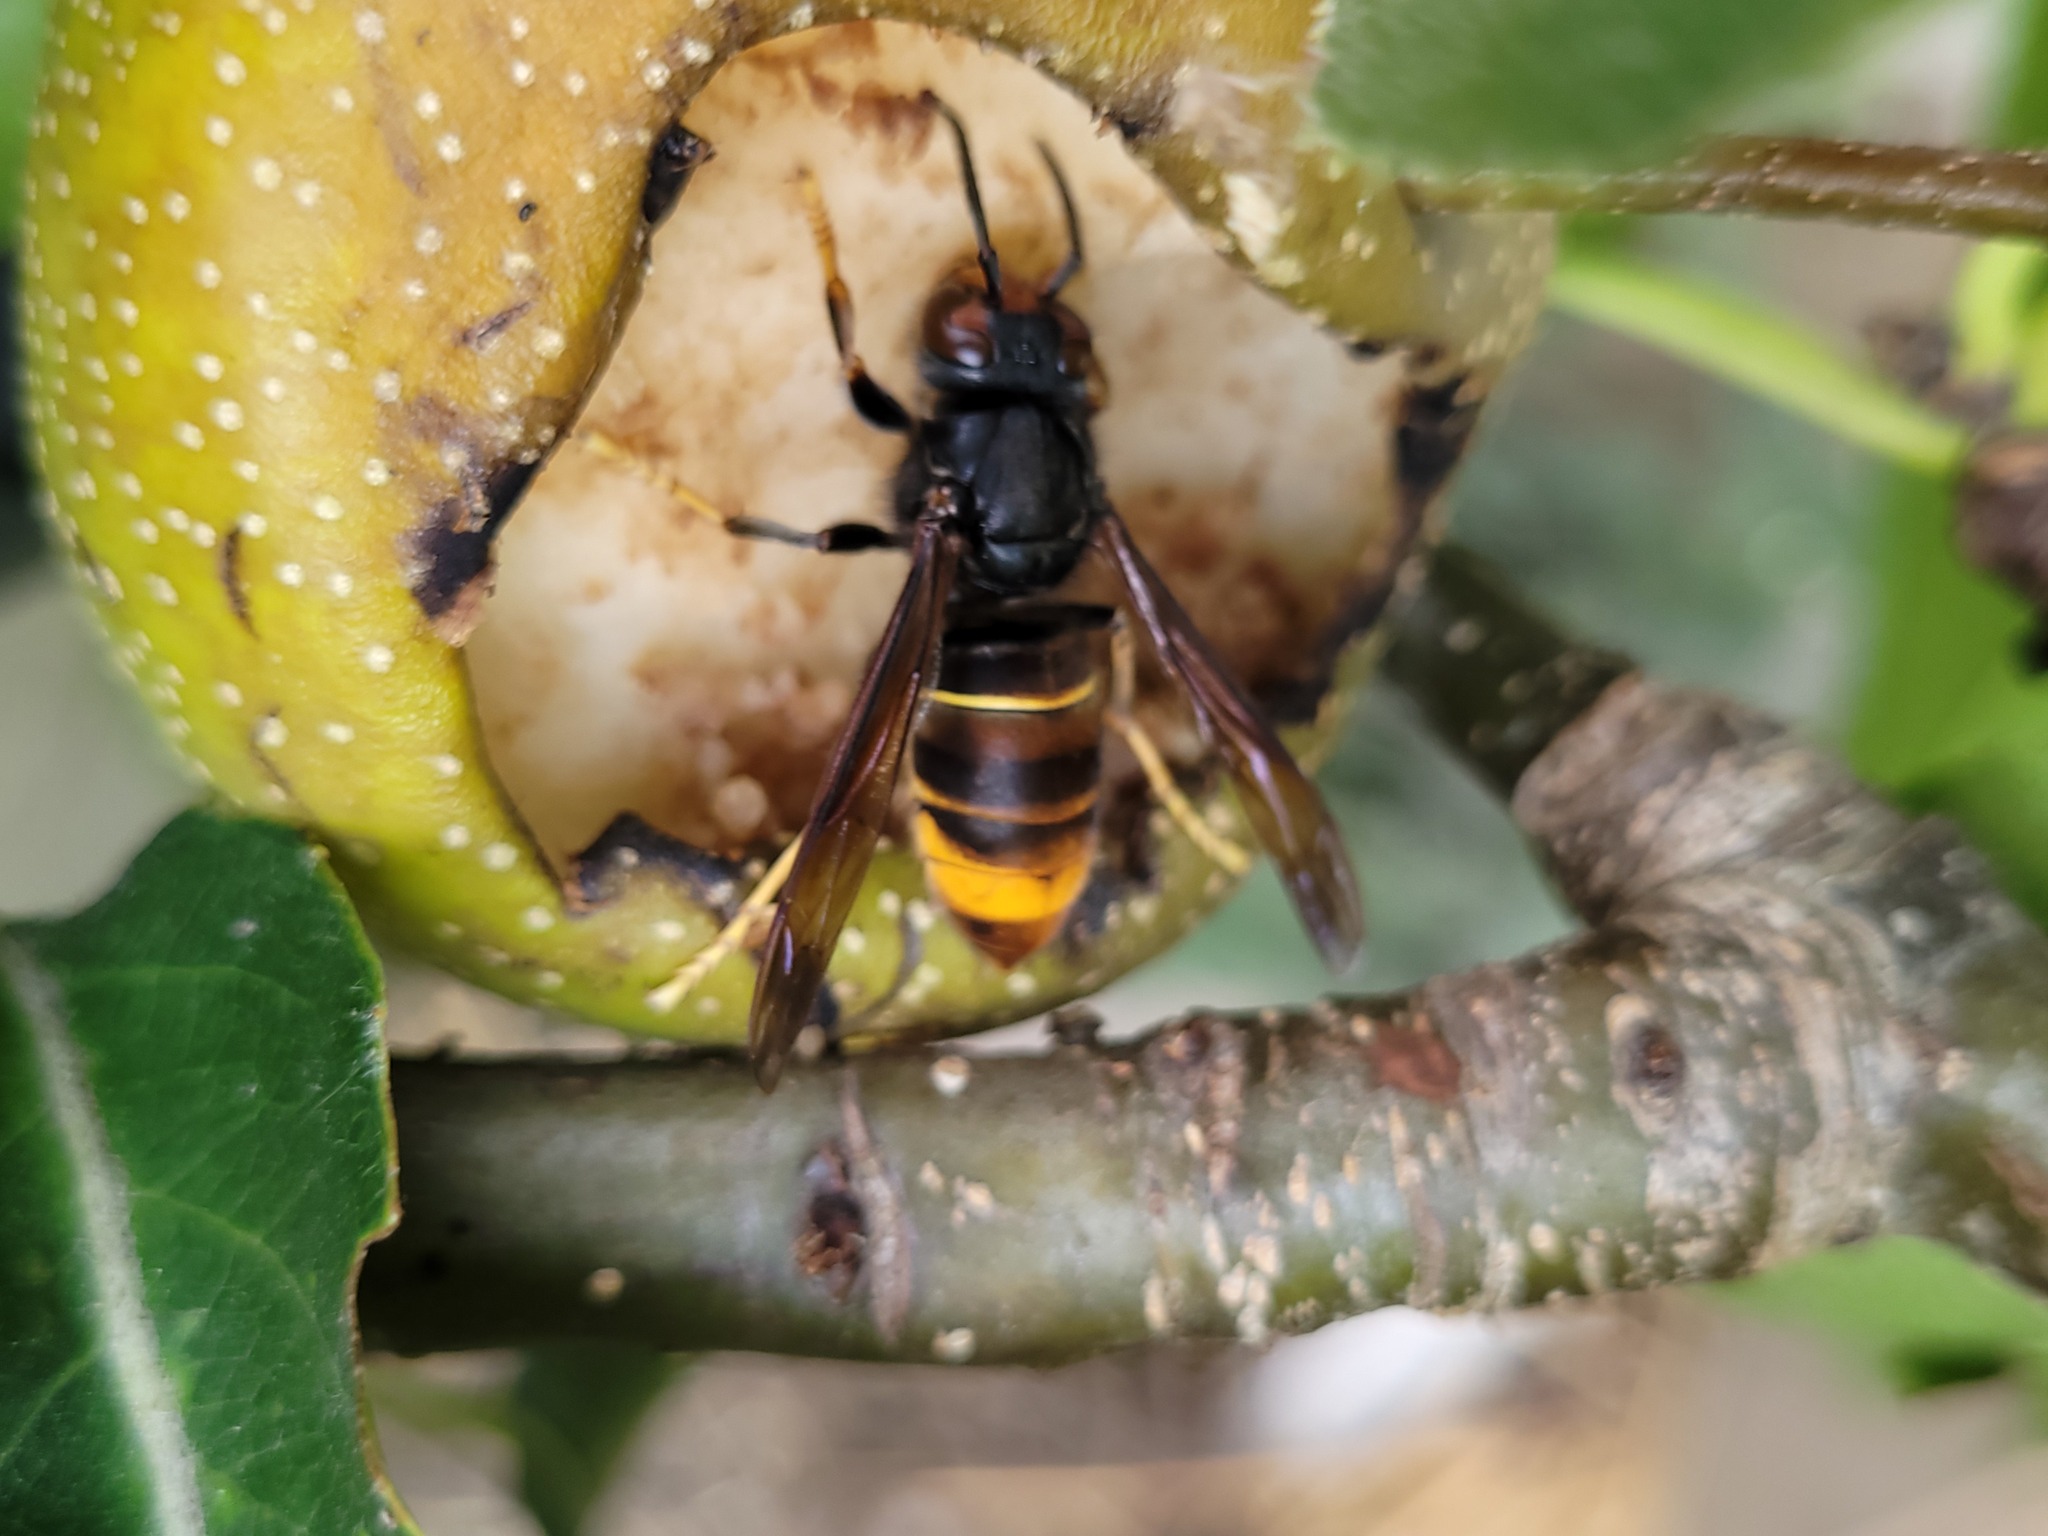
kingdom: Animalia
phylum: Arthropoda
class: Insecta
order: Hymenoptera
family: Vespidae
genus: Vespa
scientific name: Vespa velutina
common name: Asian hornet
